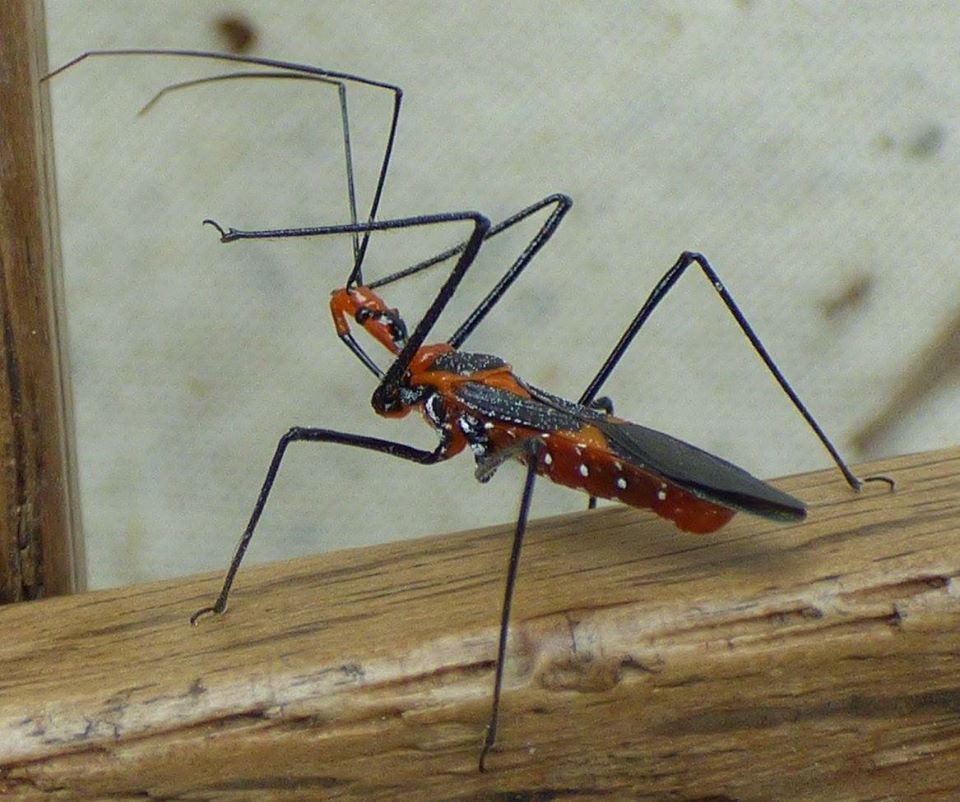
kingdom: Animalia
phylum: Arthropoda
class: Insecta
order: Hemiptera
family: Reduviidae
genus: Zelus
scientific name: Zelus longipes
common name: Milkweed assassin bug
